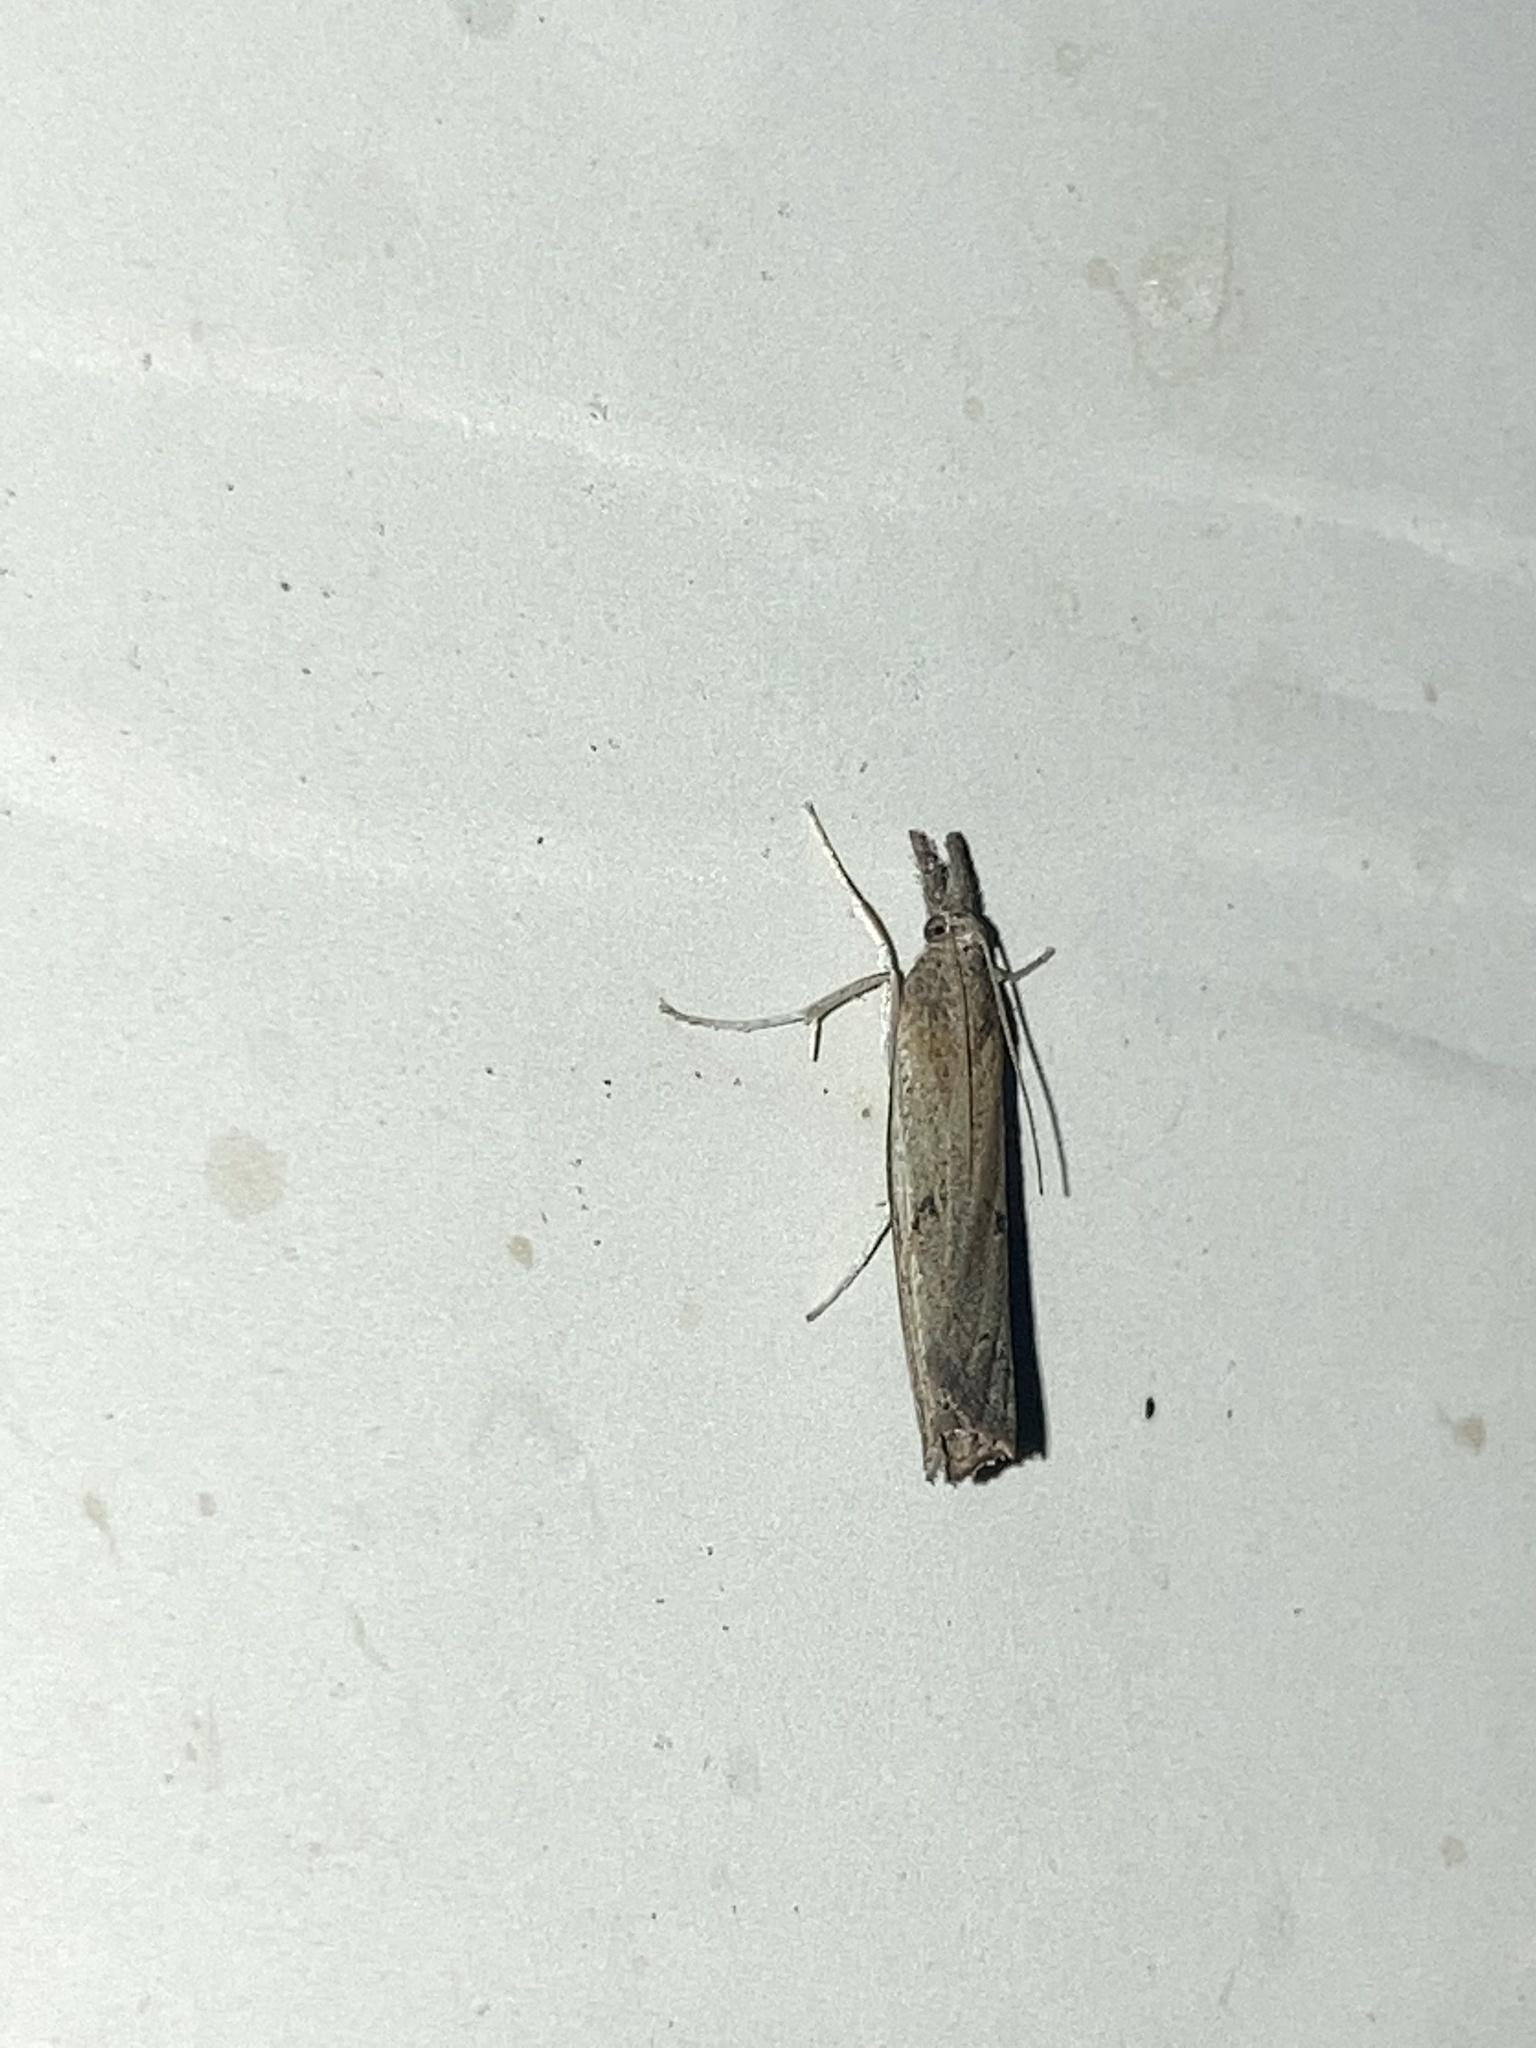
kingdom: Animalia
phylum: Arthropoda
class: Insecta
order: Lepidoptera
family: Crambidae
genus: Fissicrambus
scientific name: Fissicrambus mutabilis
